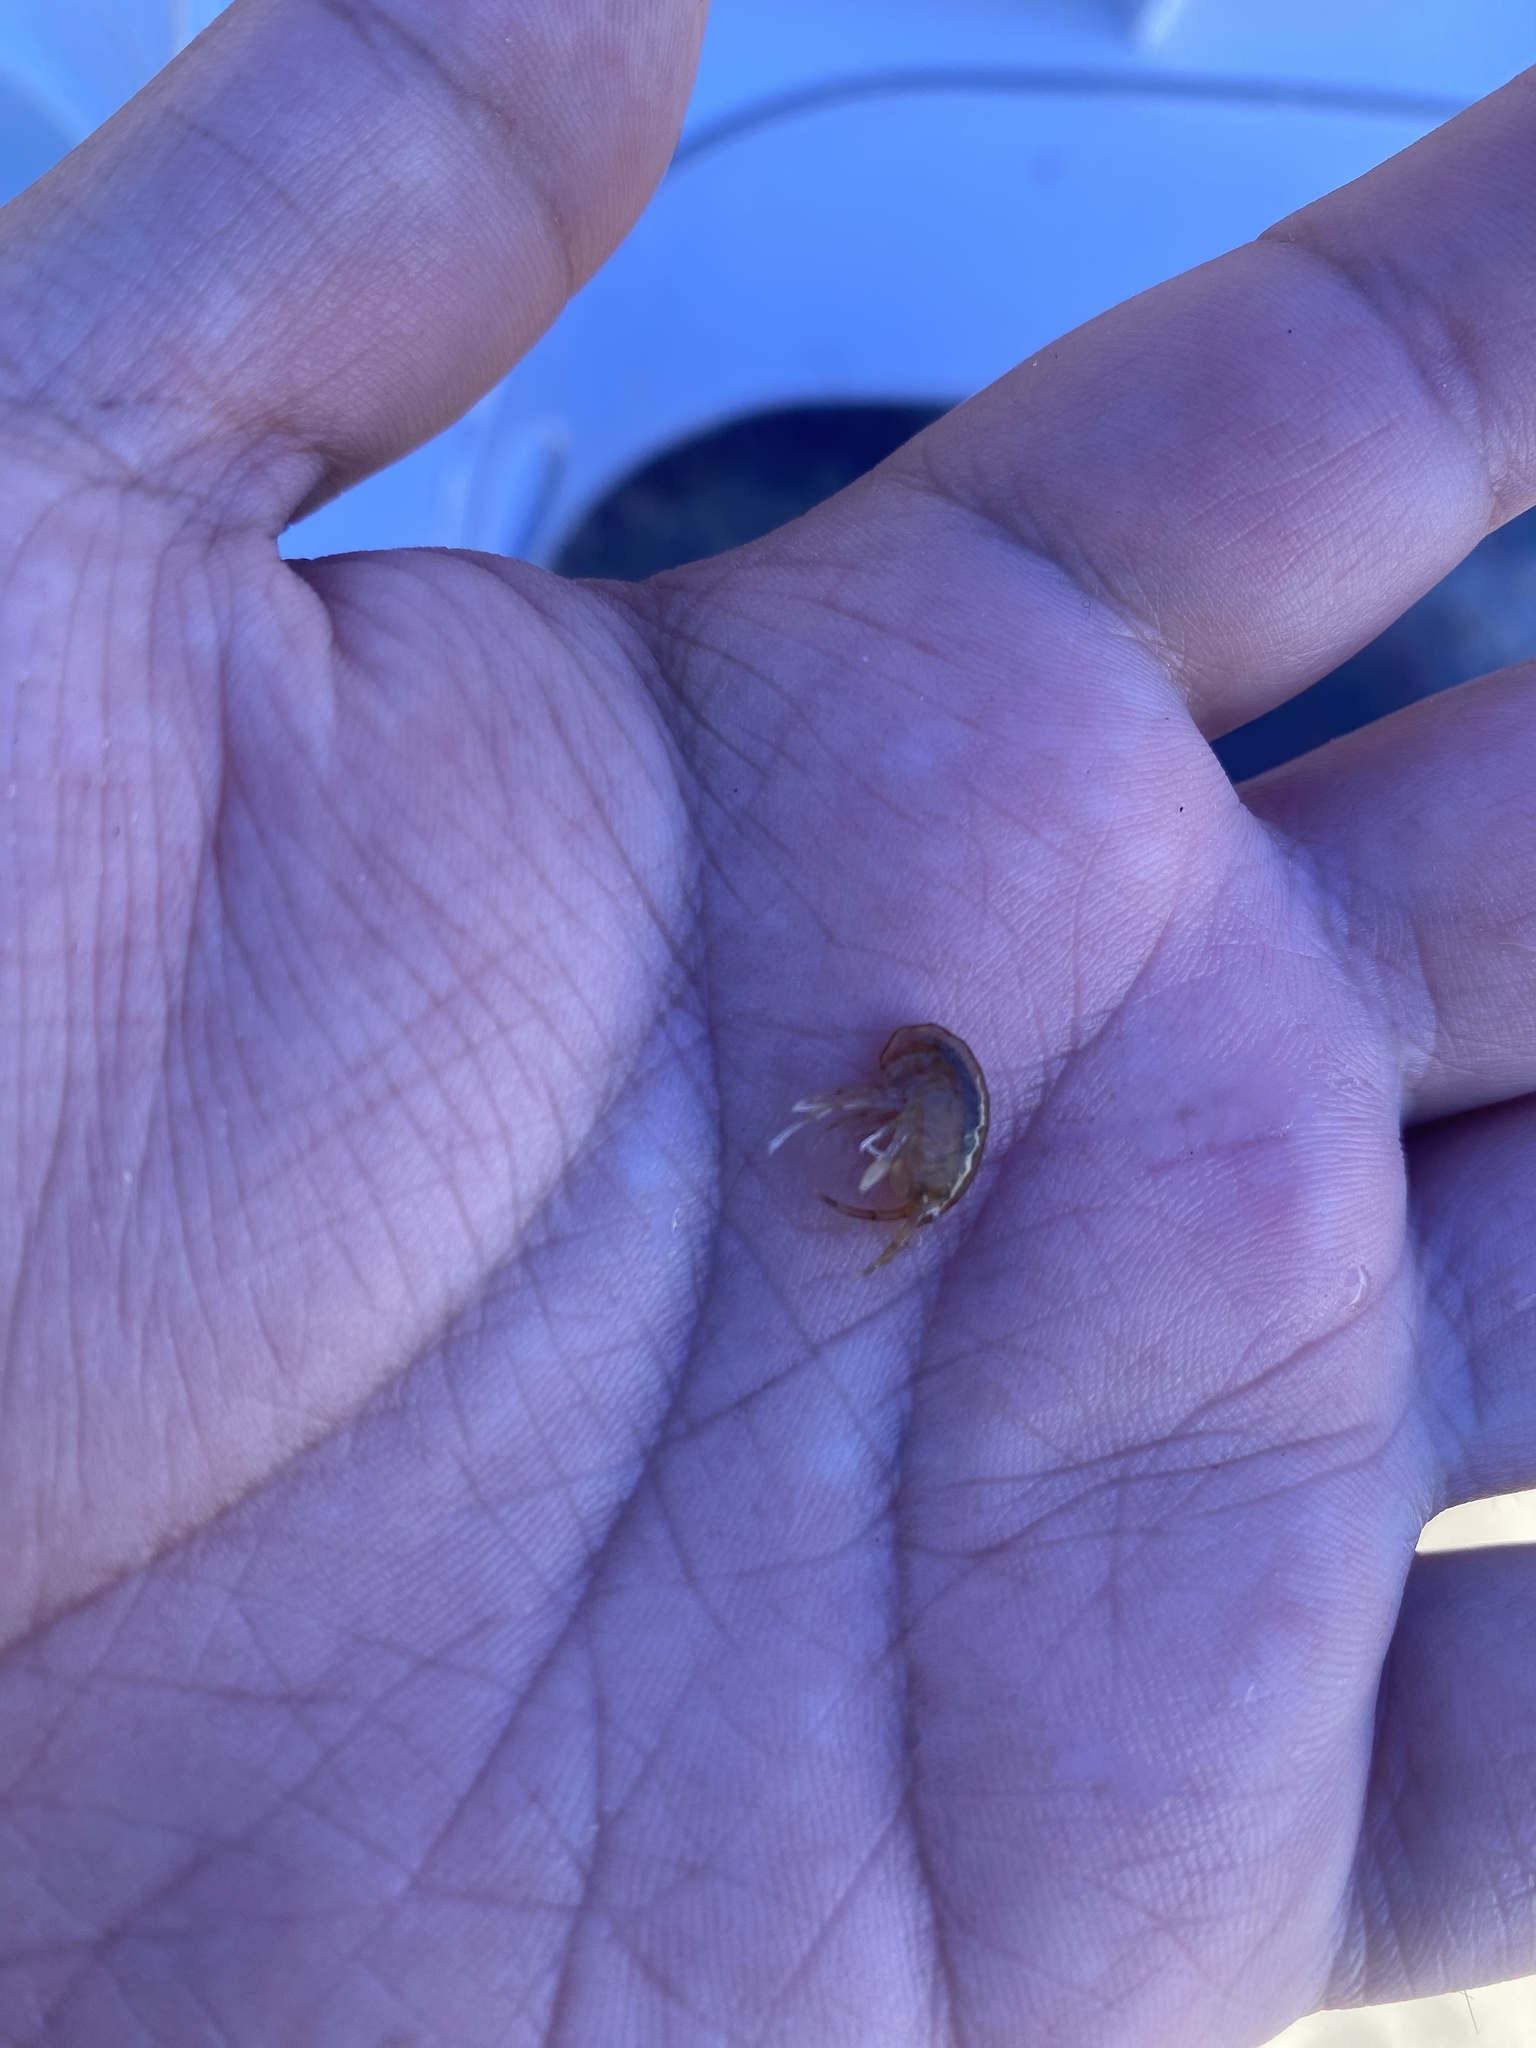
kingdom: Animalia
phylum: Arthropoda
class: Malacostraca
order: Amphipoda
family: Dogielinotidae
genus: Parhyalella
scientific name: Parhyalella penai
